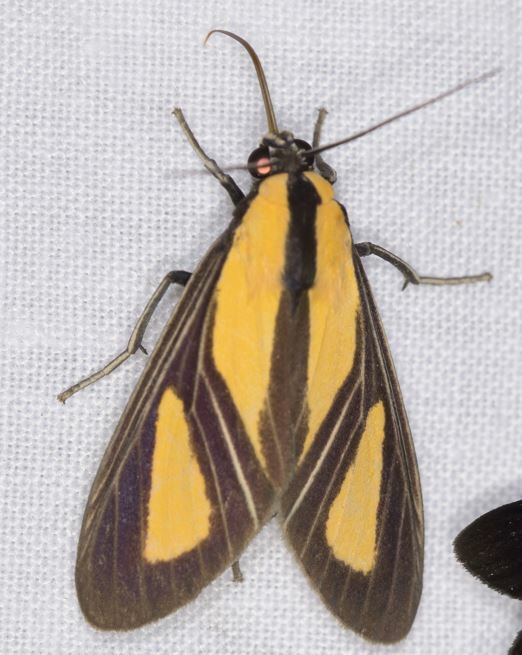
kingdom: Animalia
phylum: Arthropoda
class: Insecta
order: Lepidoptera
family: Erebidae
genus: Xanthoarctia
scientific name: Xanthoarctia pseudameoides
